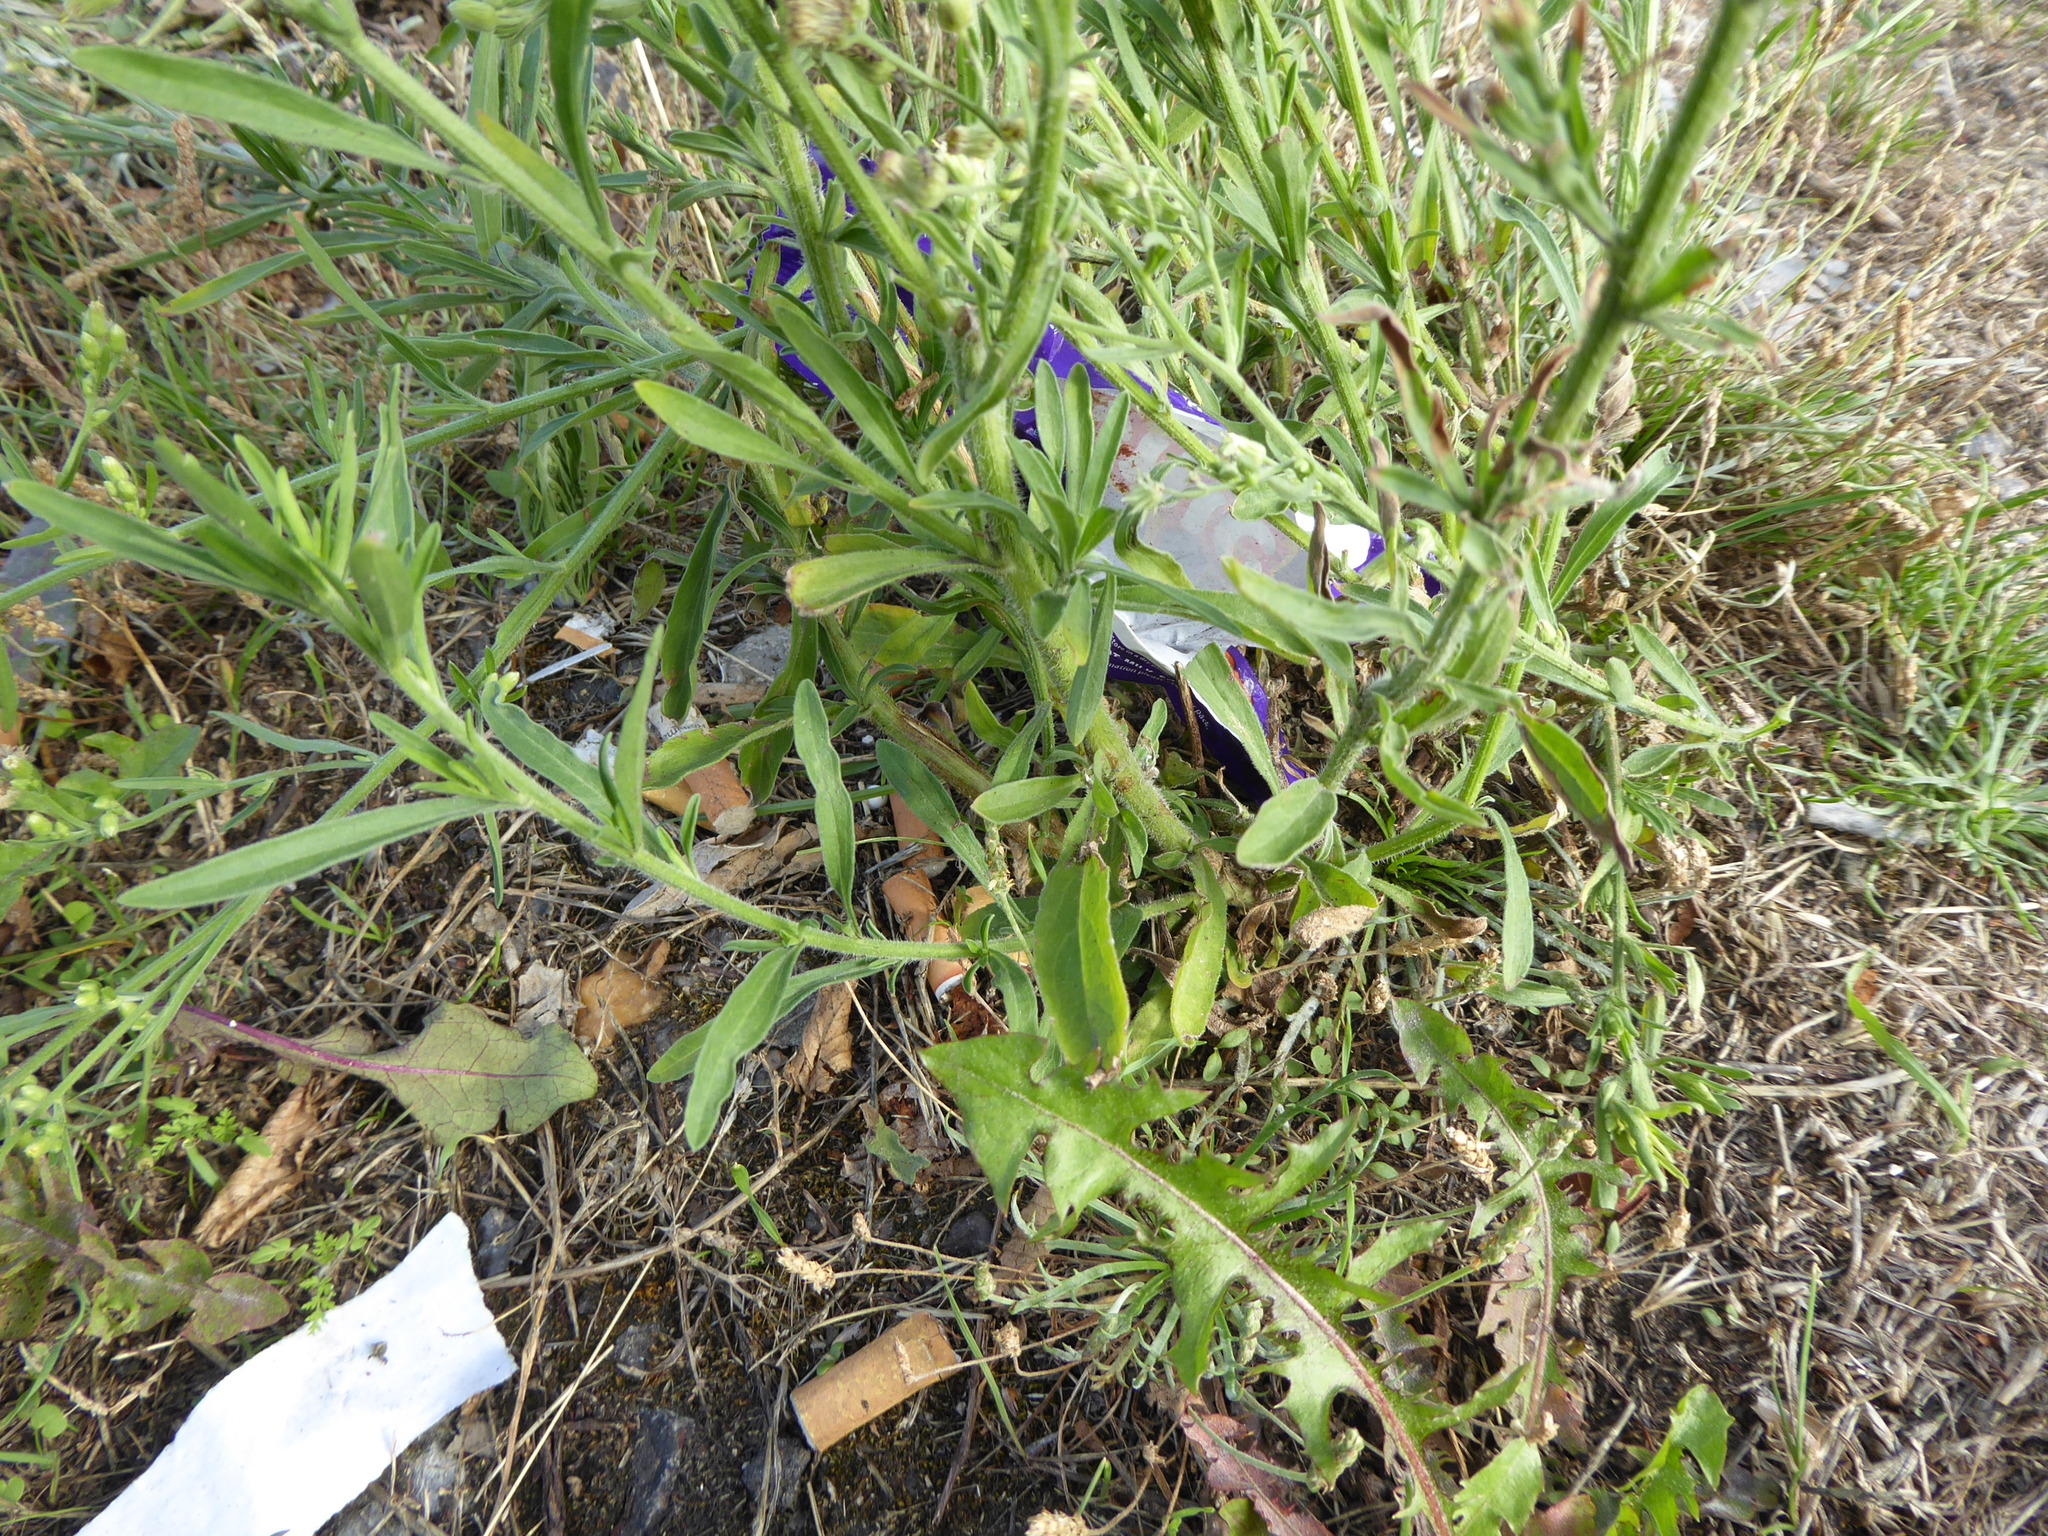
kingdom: Plantae
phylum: Tracheophyta
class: Magnoliopsida
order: Asterales
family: Asteraceae
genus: Erigeron
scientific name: Erigeron sumatrensis
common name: Daisy
